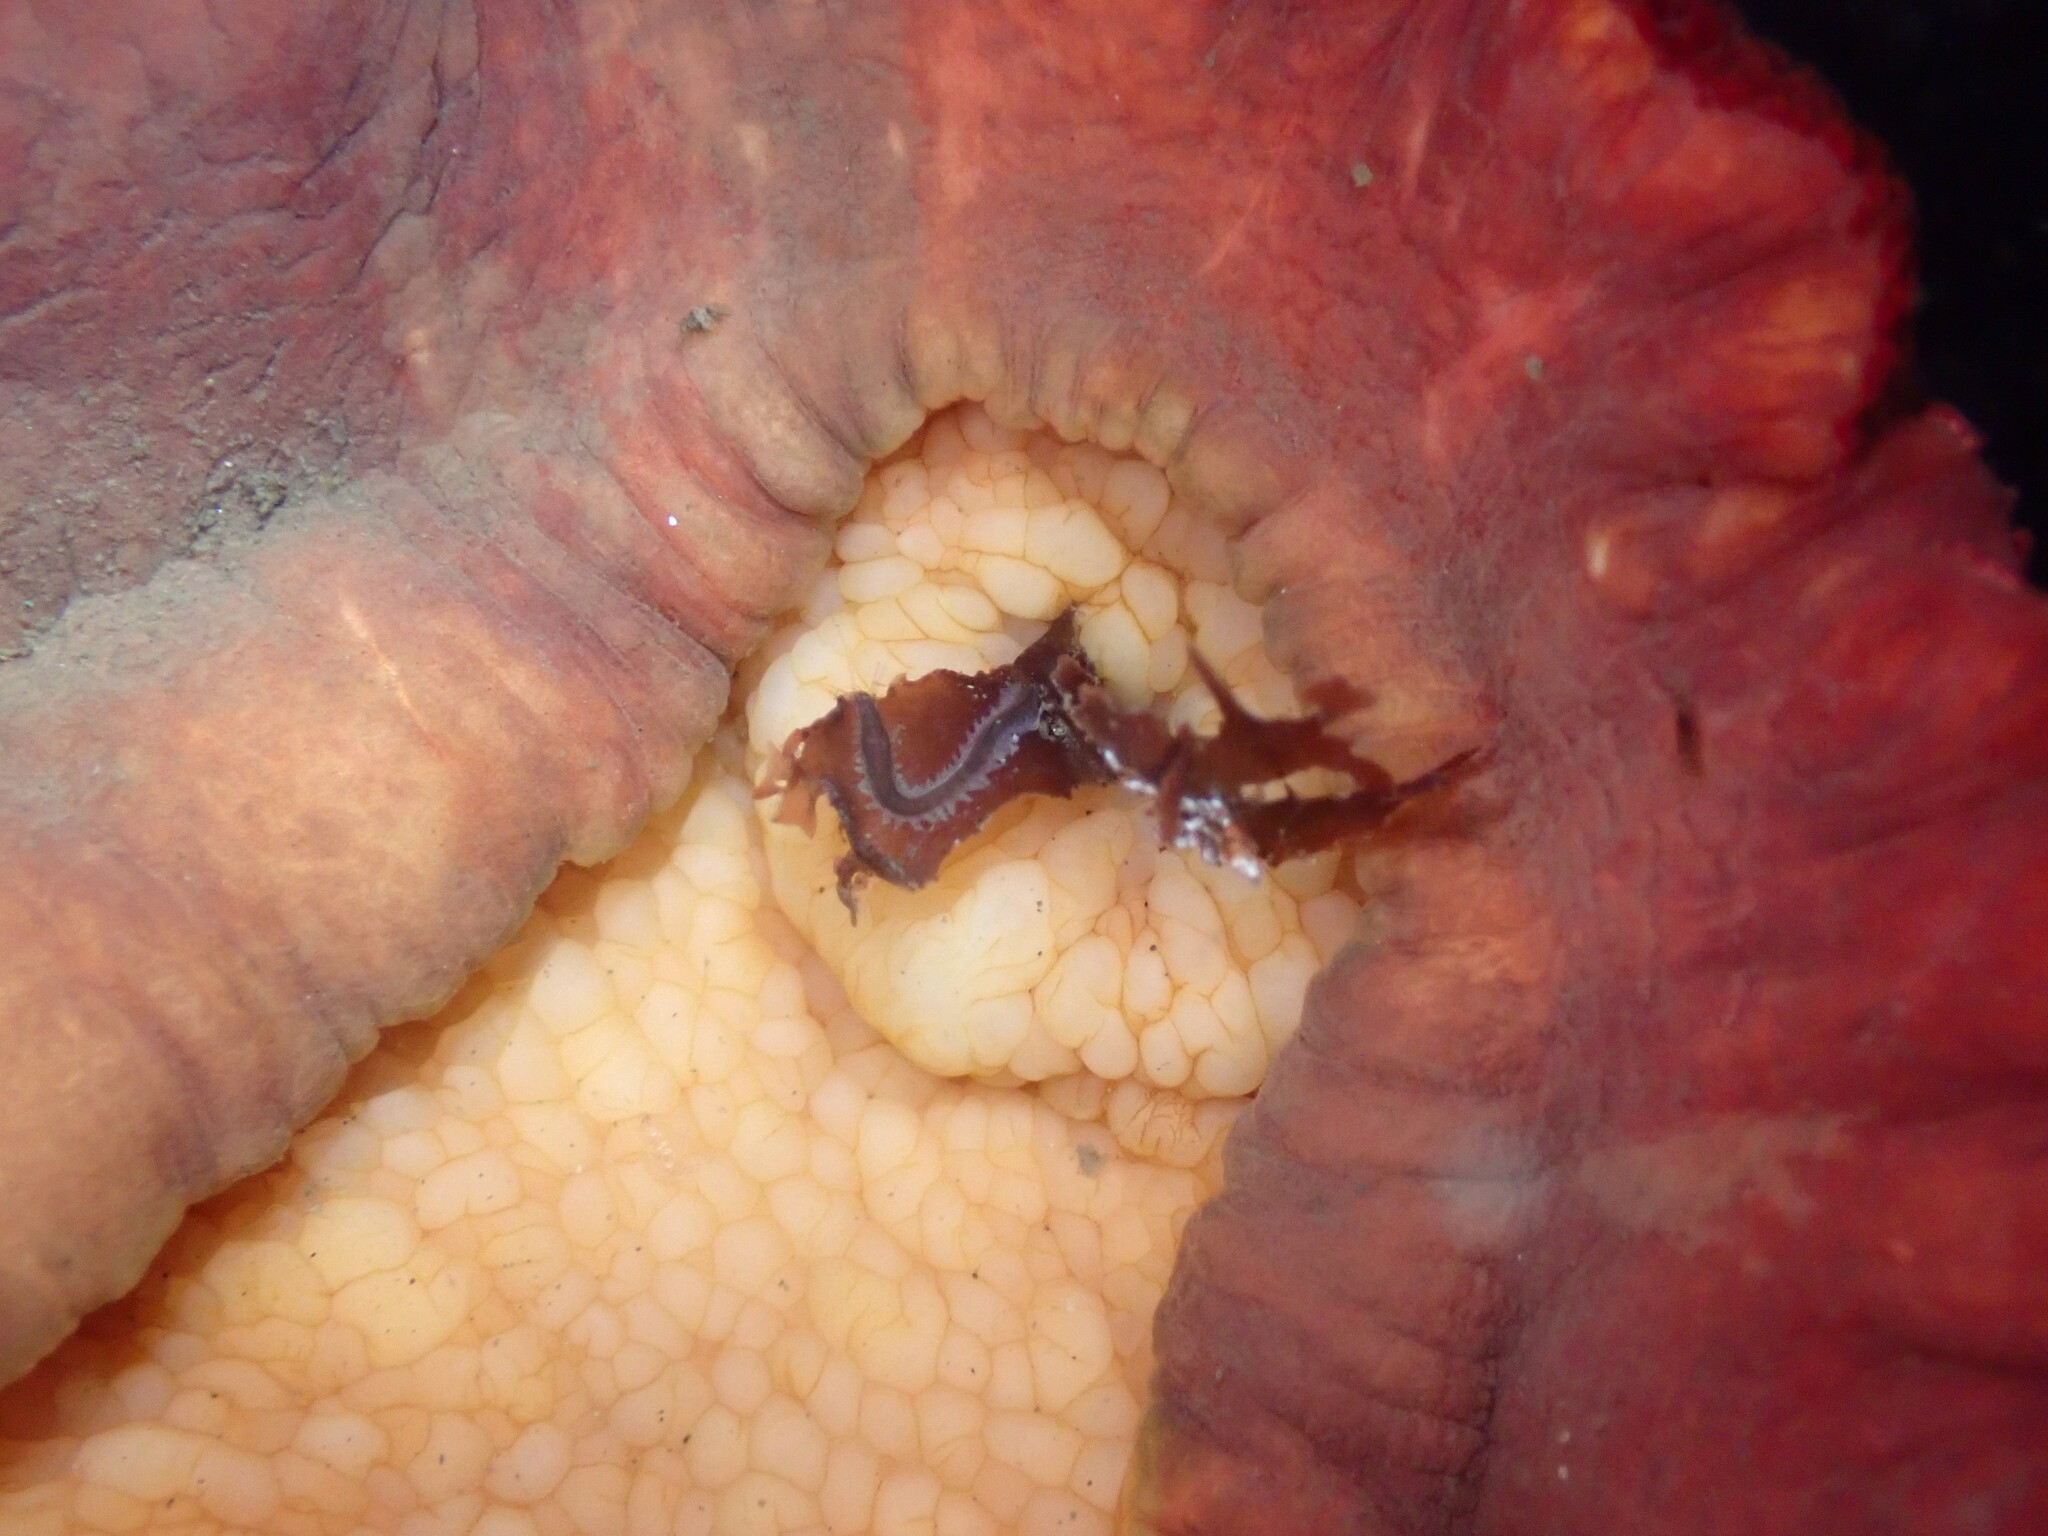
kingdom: Animalia
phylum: Annelida
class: Polychaeta
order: Phyllodocida
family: Nereididae
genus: Platynereis
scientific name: Platynereis bicanaliculata
